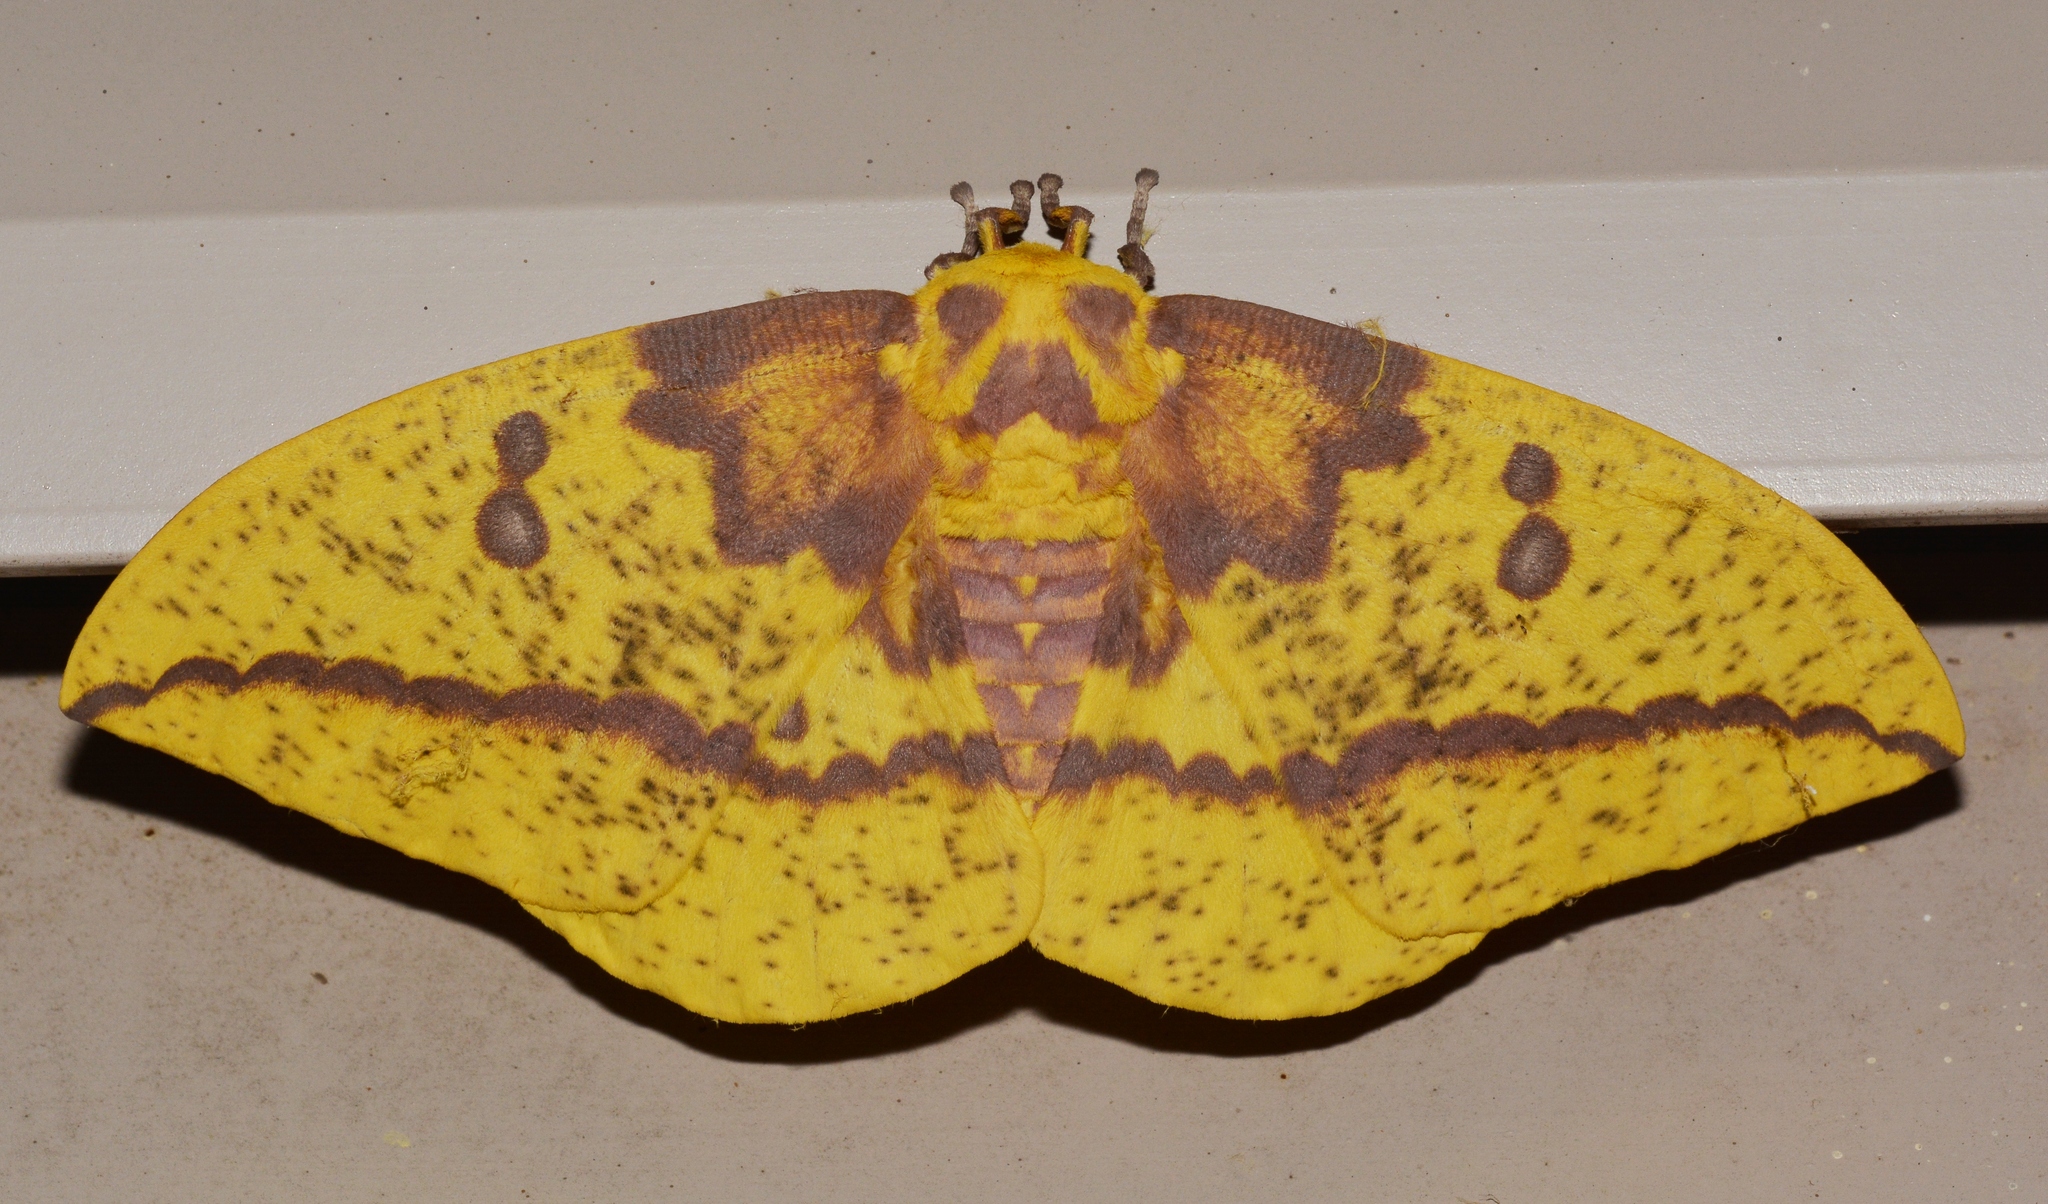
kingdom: Animalia
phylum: Arthropoda
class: Insecta
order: Lepidoptera
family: Saturniidae
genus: Eacles
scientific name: Eacles imperialis
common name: Imperial moth
